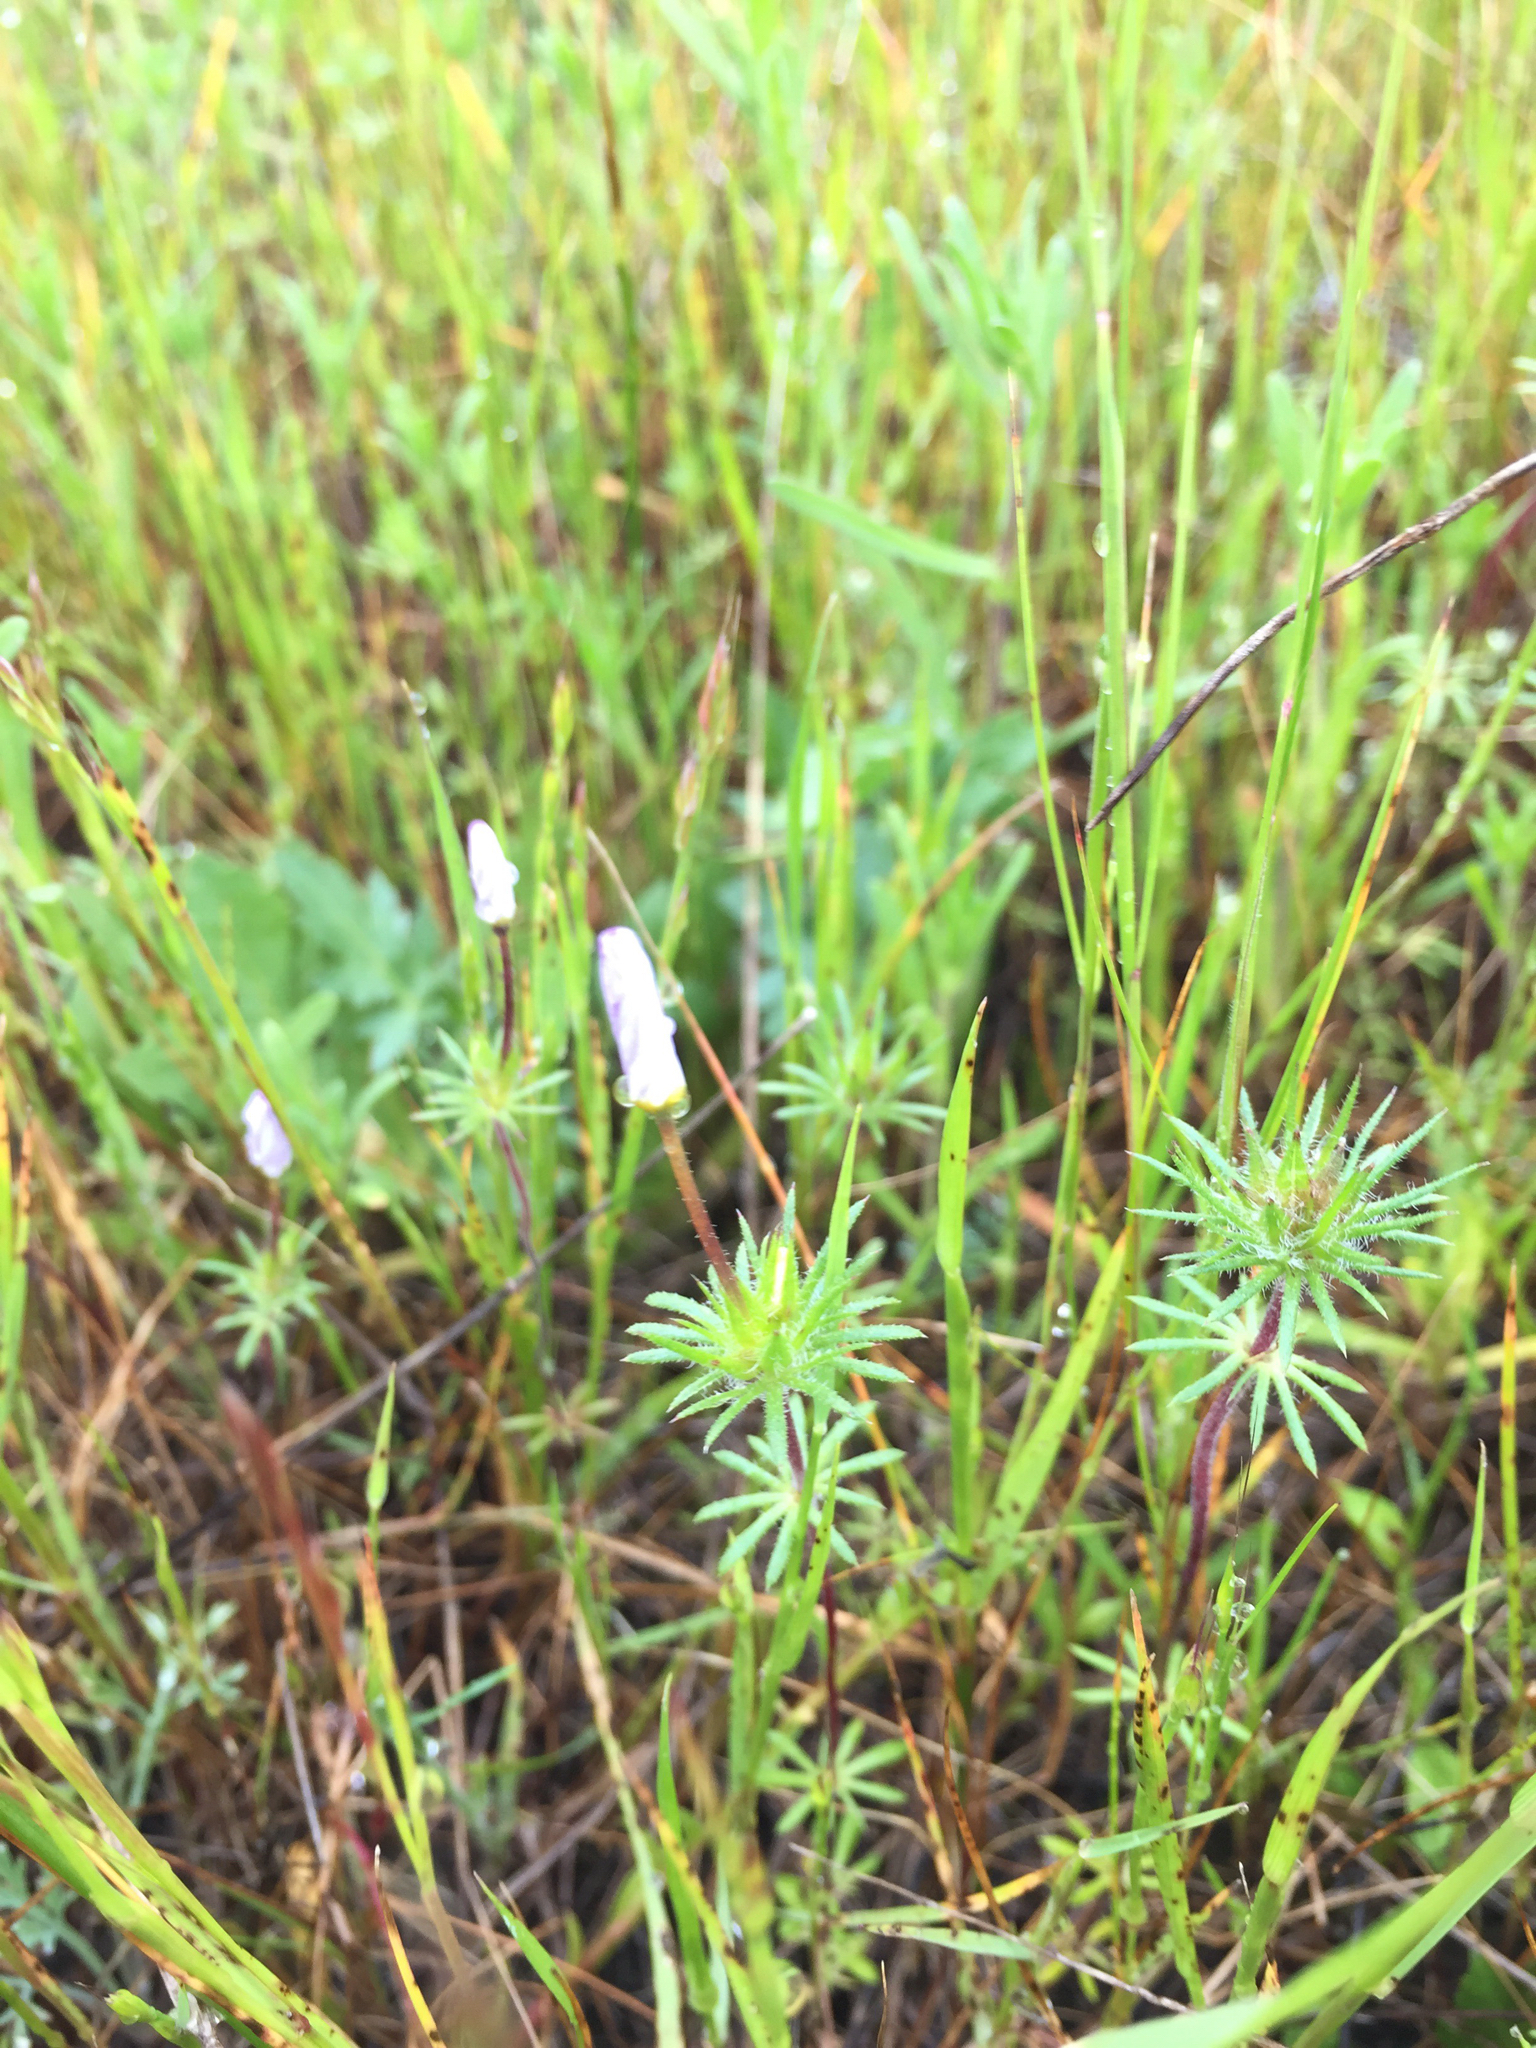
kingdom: Plantae
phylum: Tracheophyta
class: Magnoliopsida
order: Ericales
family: Polemoniaceae
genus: Leptosiphon
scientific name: Leptosiphon androsaceus
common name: False babystars
